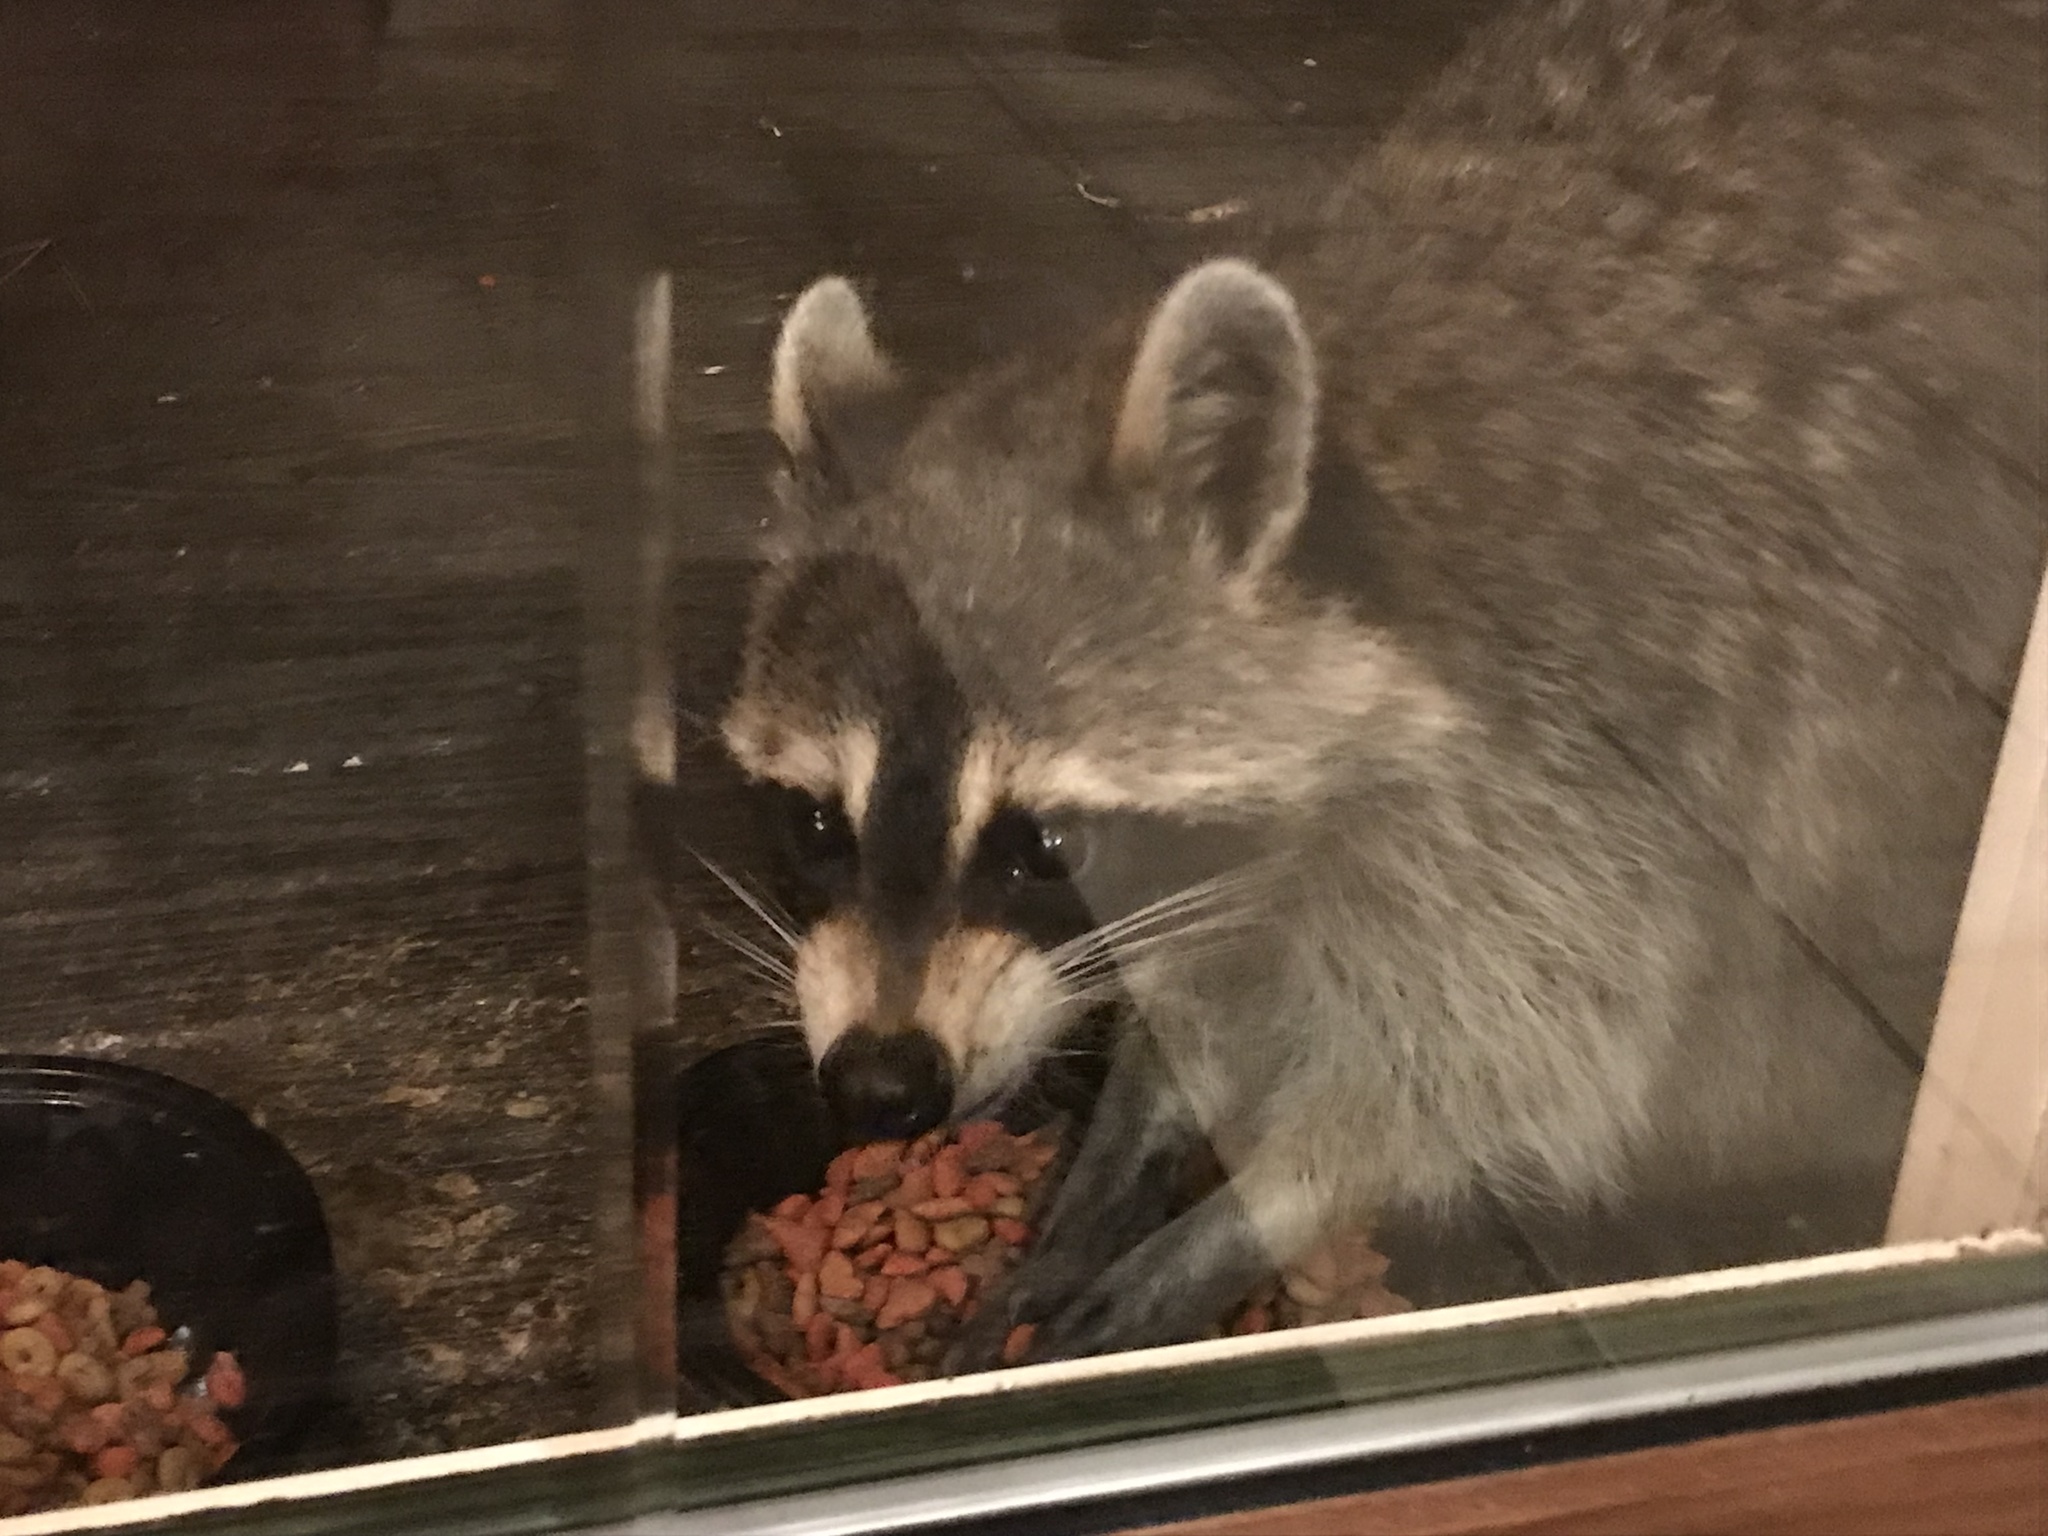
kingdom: Animalia
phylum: Chordata
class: Mammalia
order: Carnivora
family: Procyonidae
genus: Procyon
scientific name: Procyon lotor
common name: Raccoon
